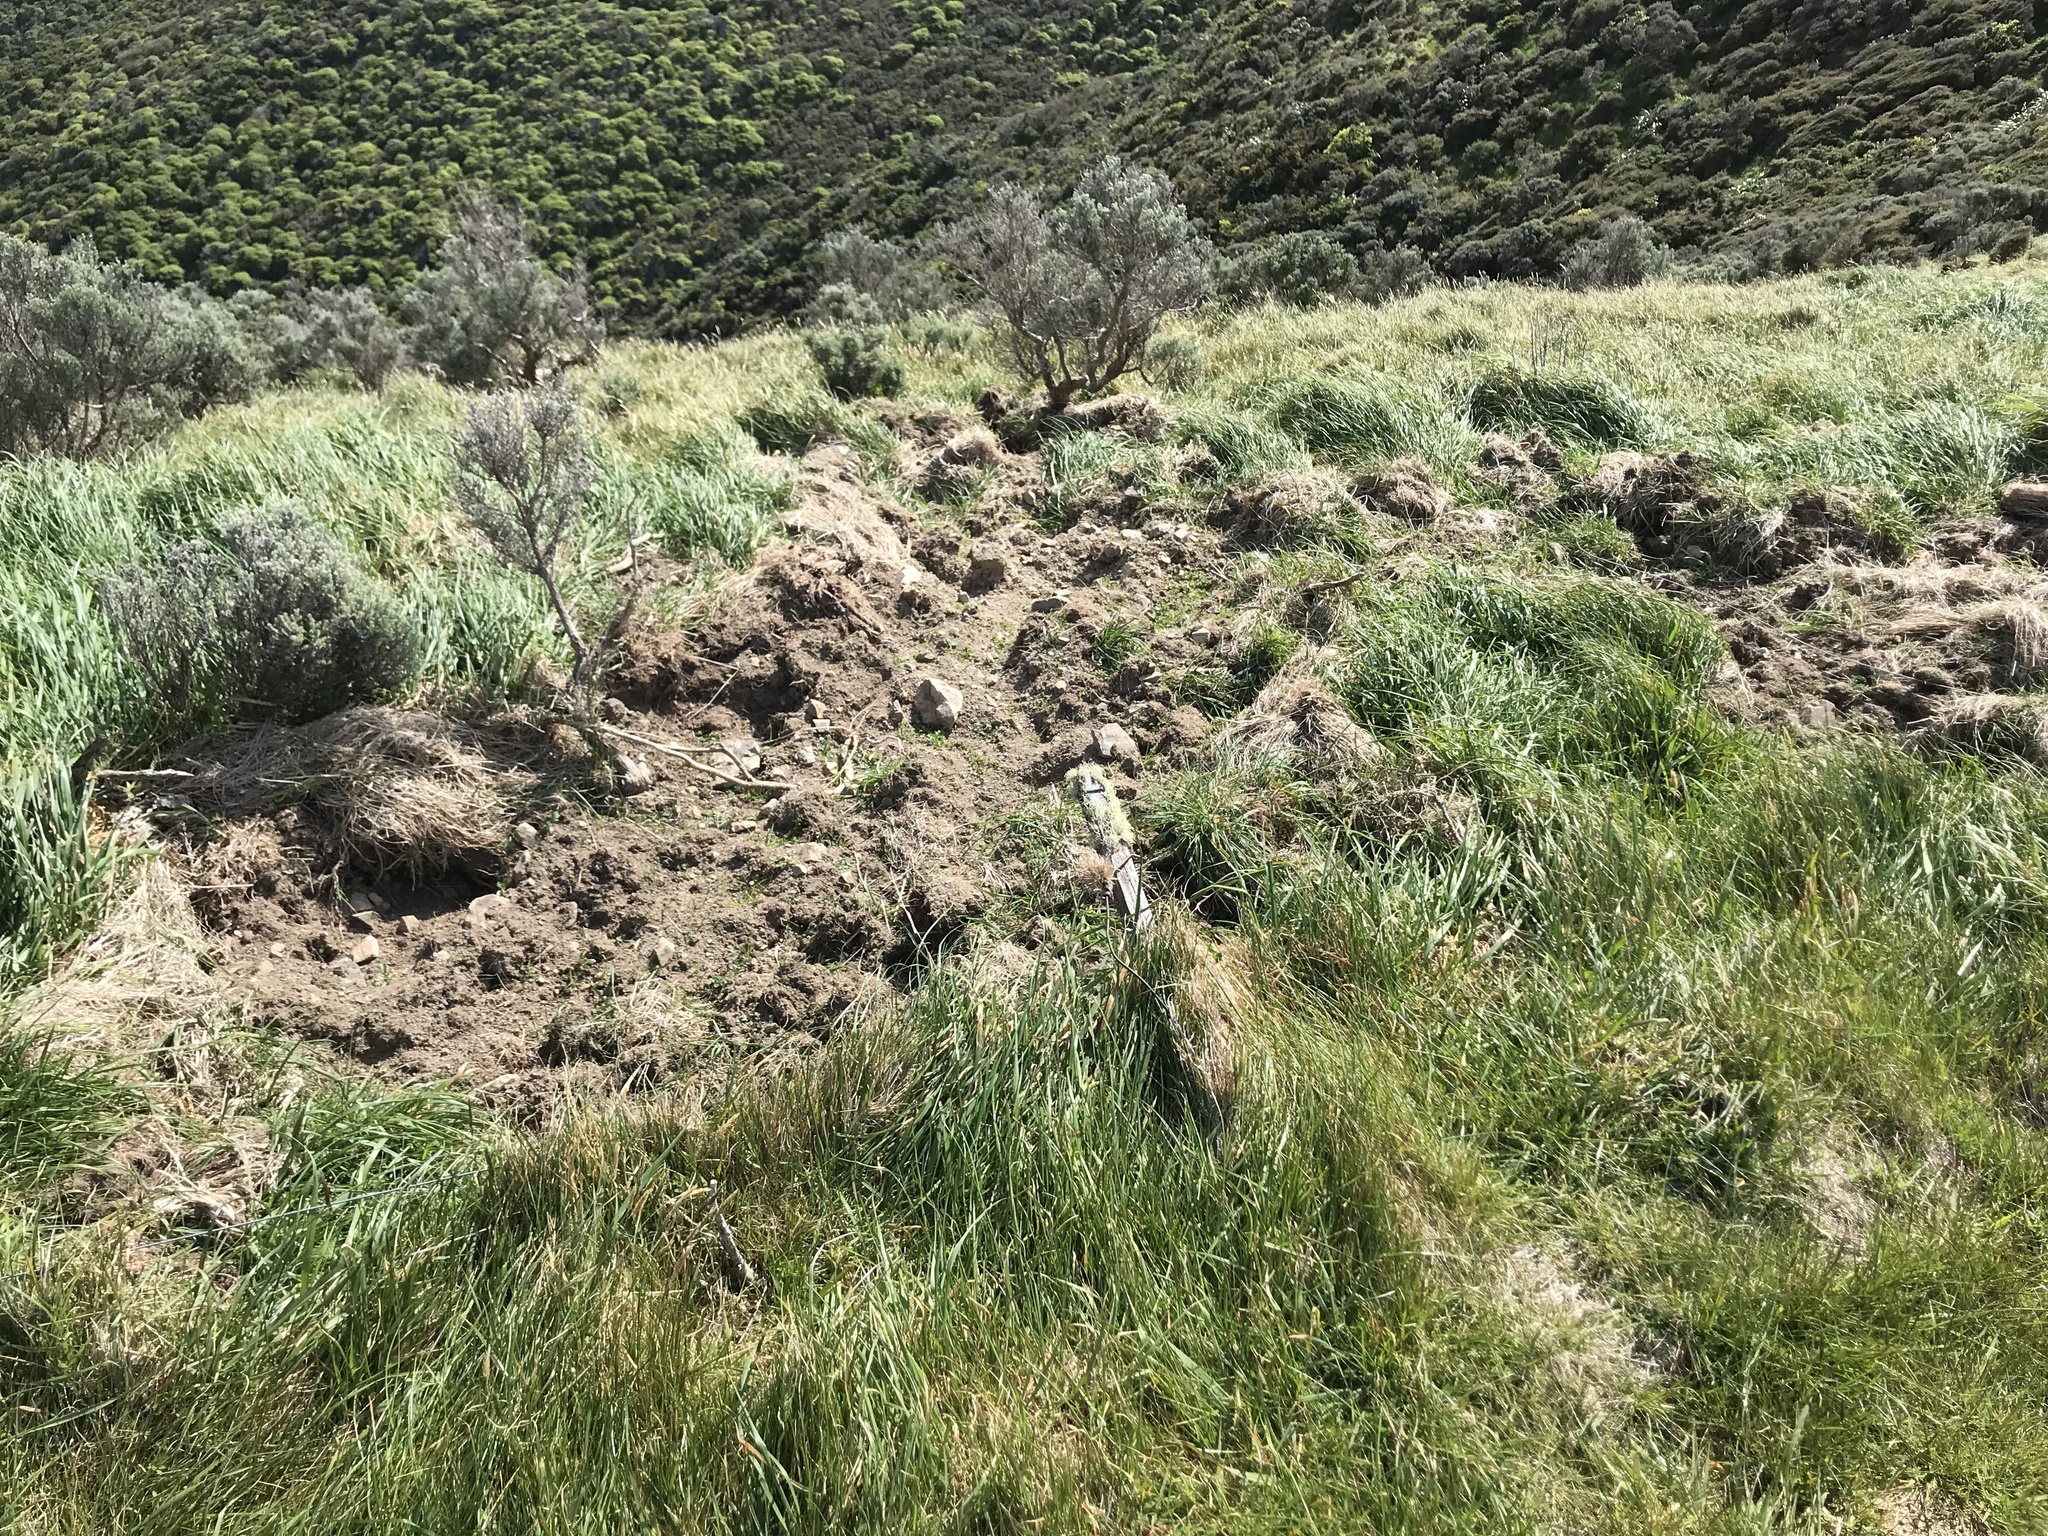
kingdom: Animalia
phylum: Chordata
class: Mammalia
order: Artiodactyla
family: Suidae
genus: Sus
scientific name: Sus scrofa
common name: Wild boar
